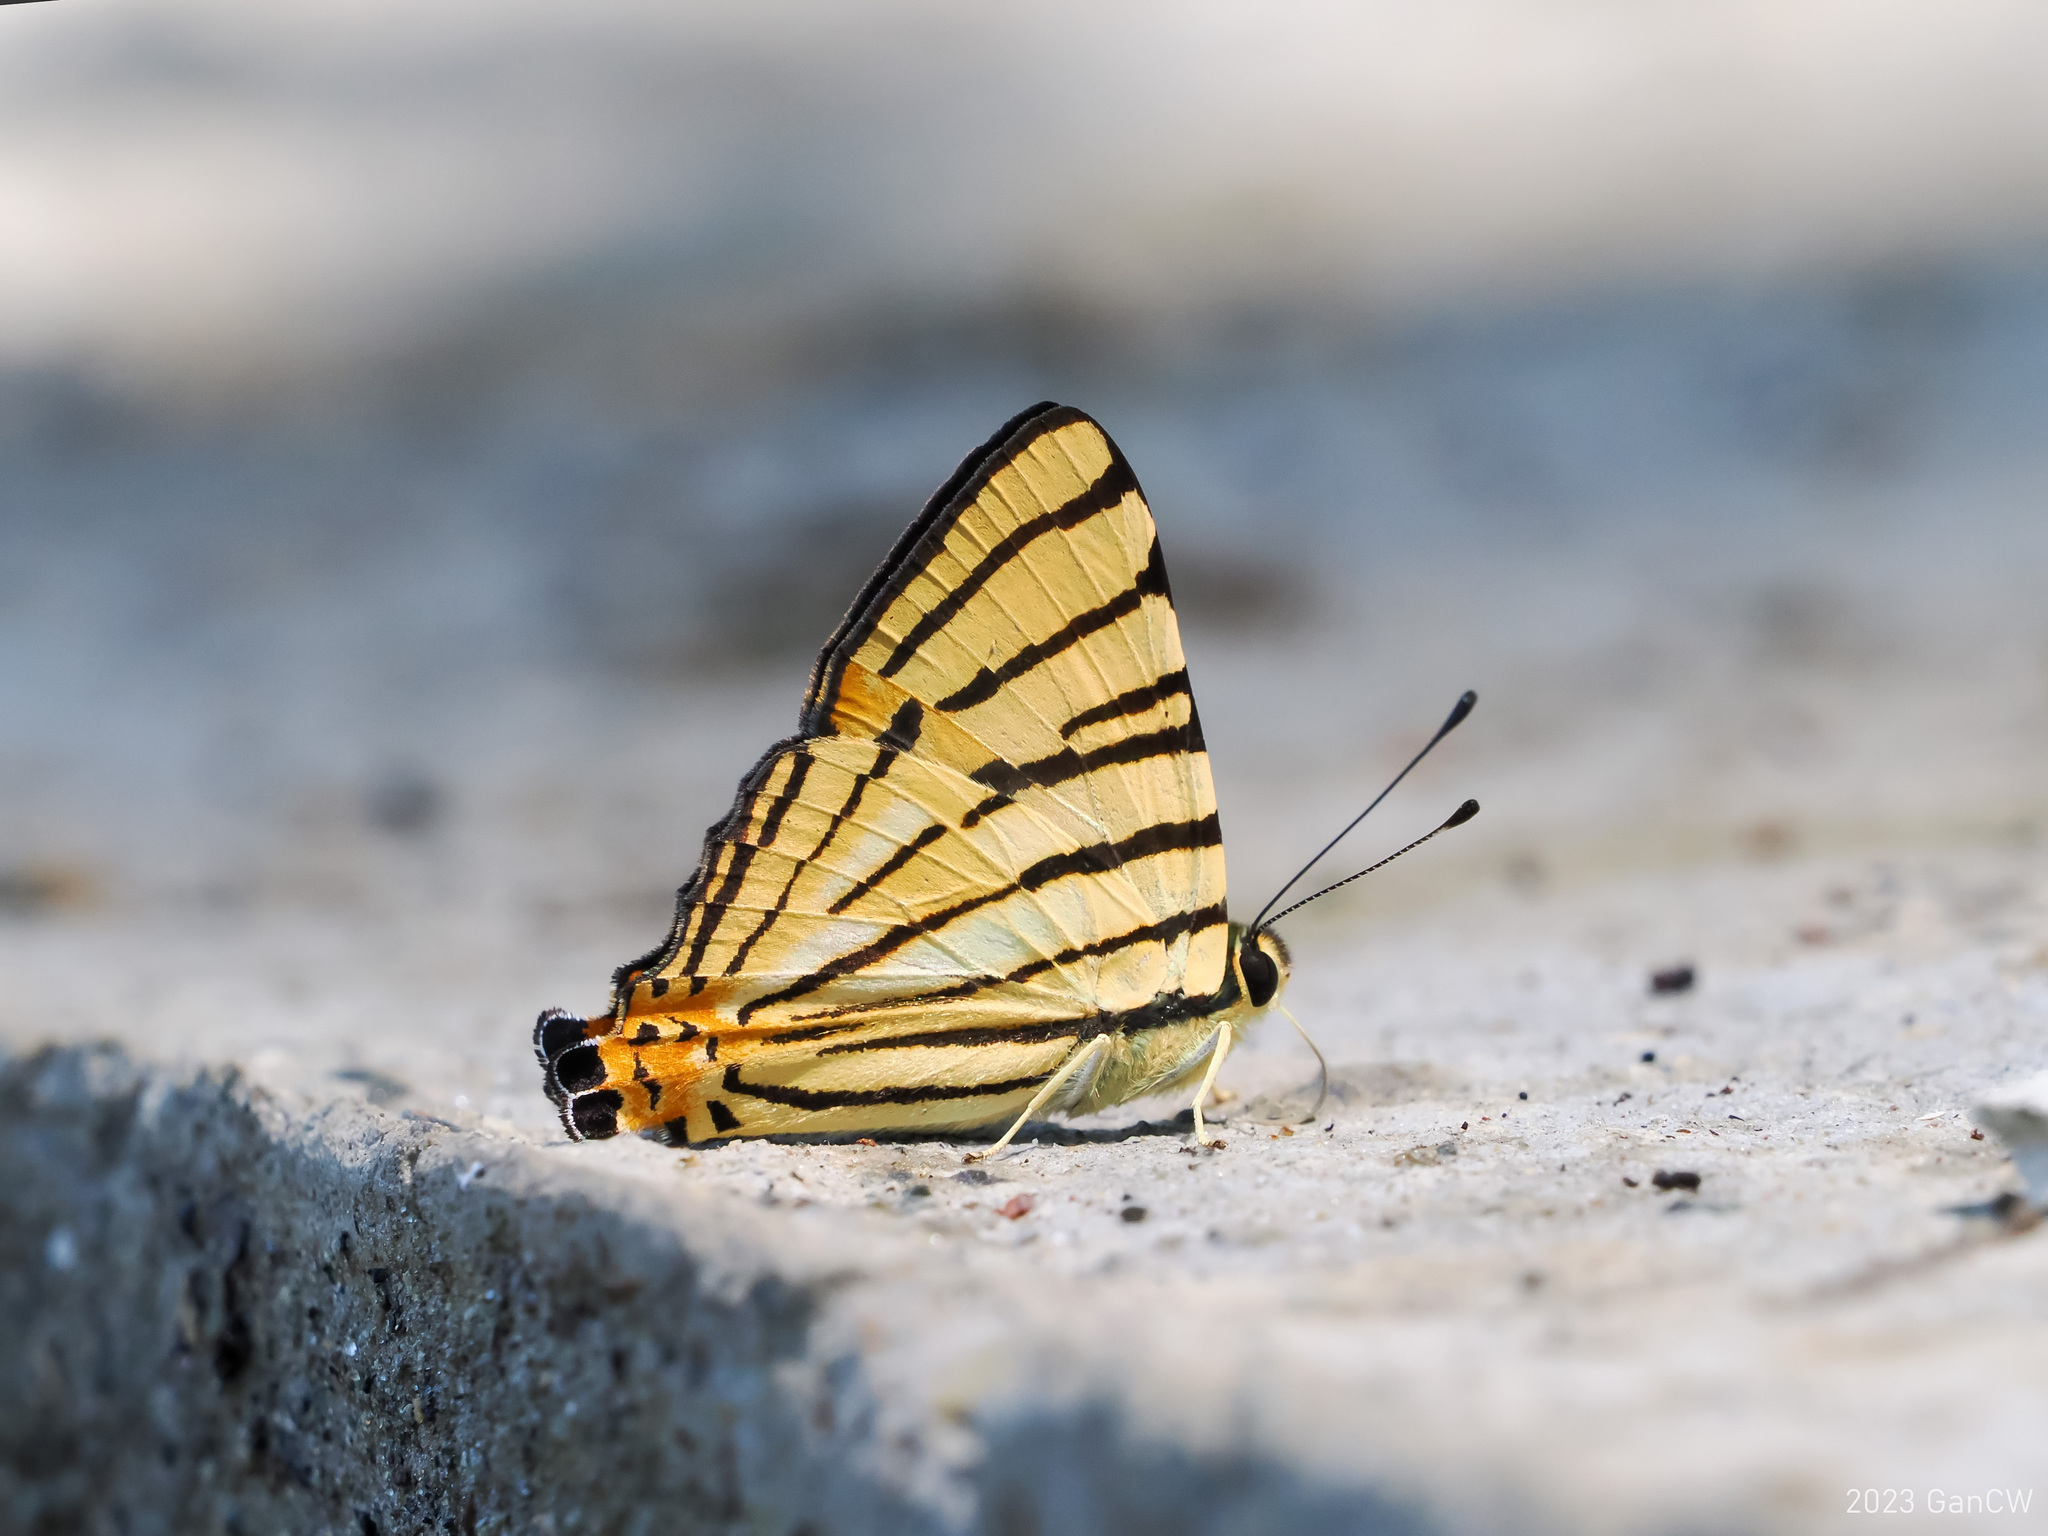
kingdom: Animalia
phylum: Arthropoda
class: Insecta
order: Lepidoptera
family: Lycaenidae
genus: Dodona
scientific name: Dodona adonira
